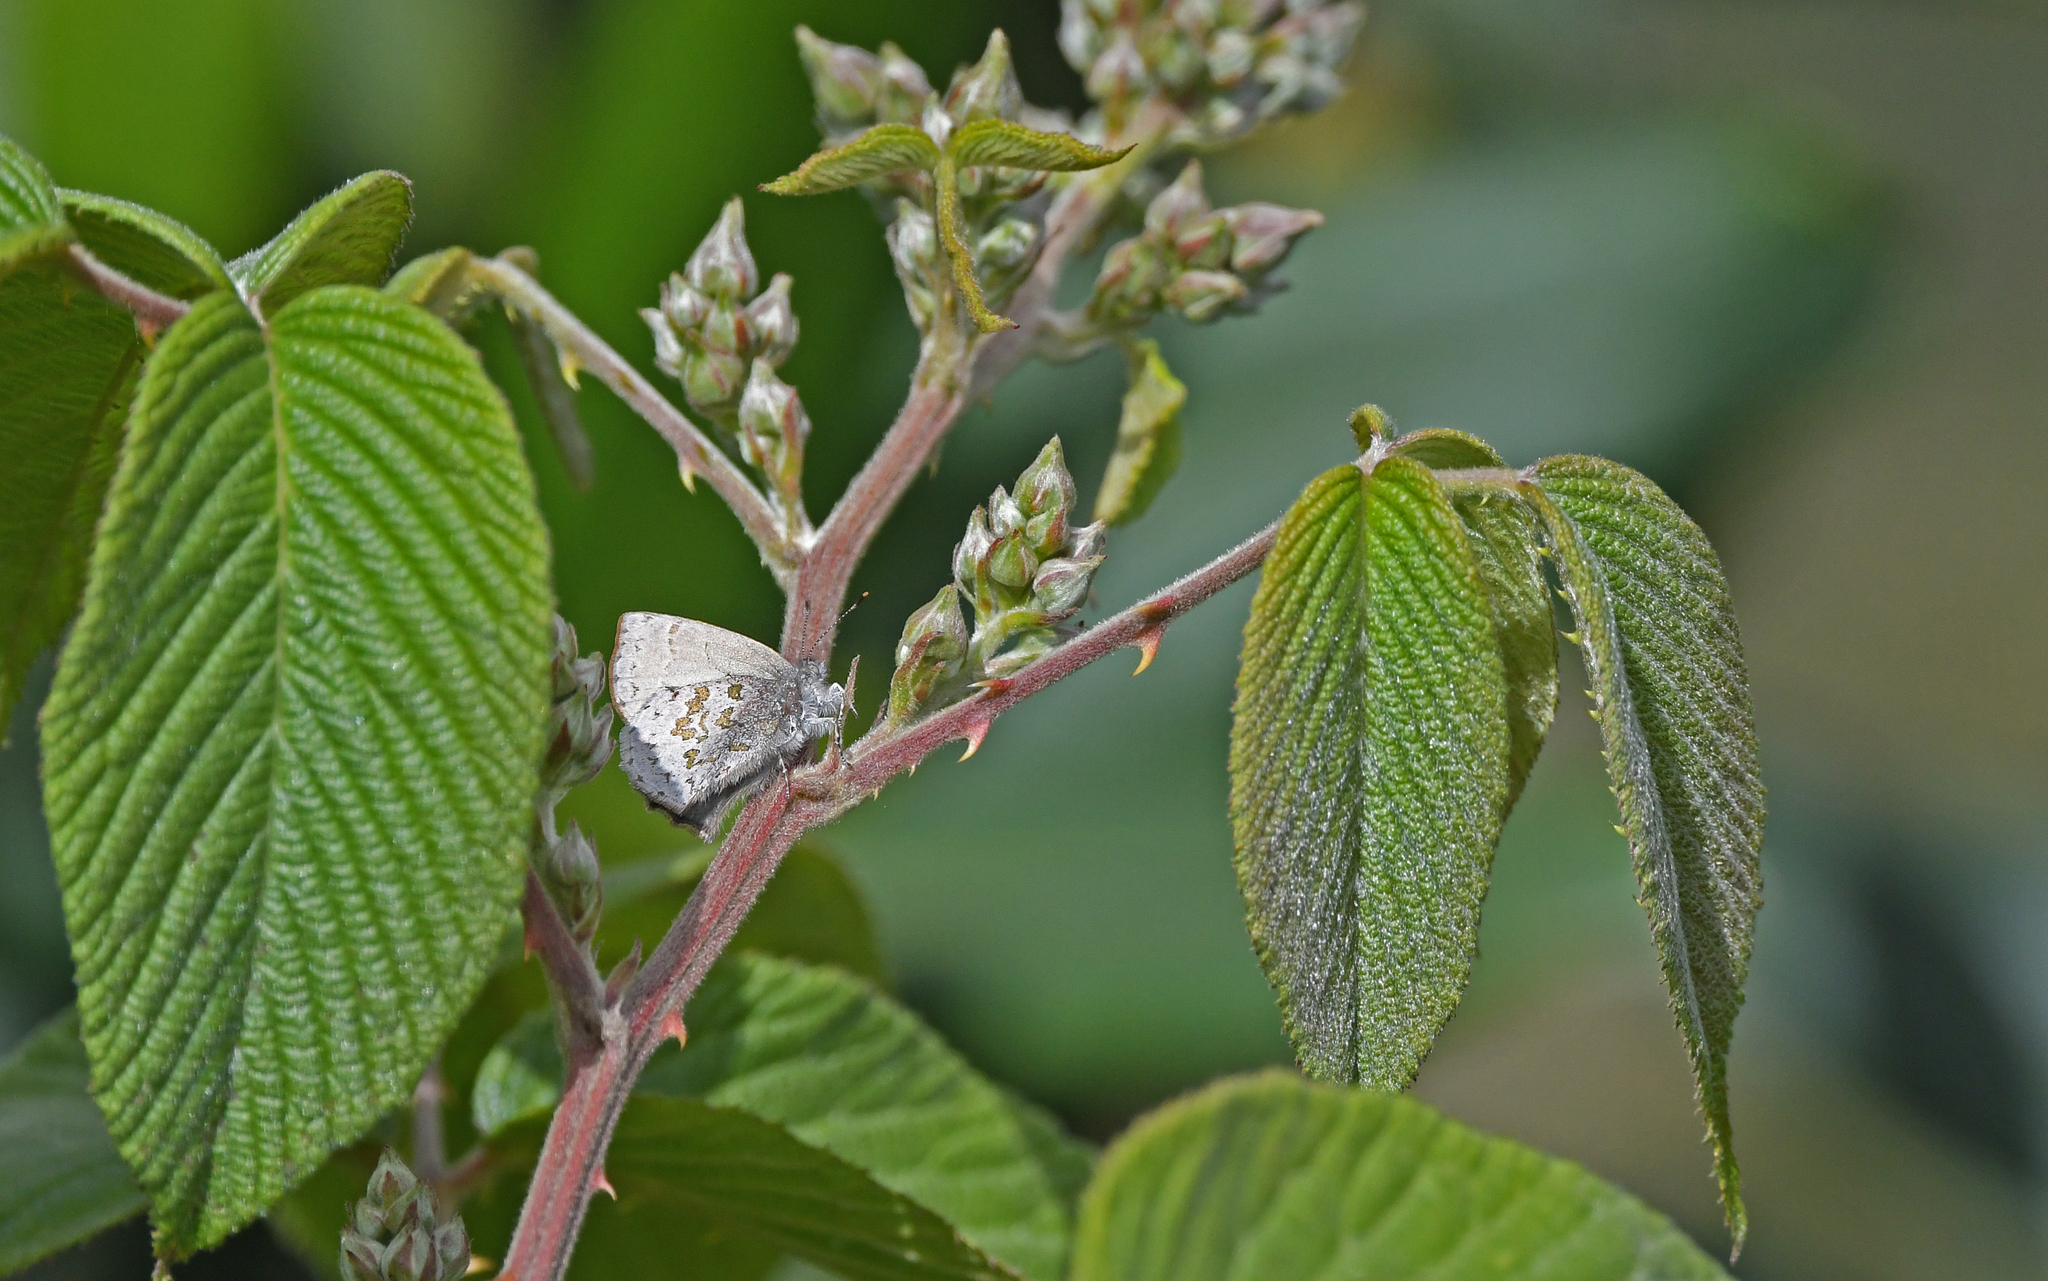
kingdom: Animalia
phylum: Arthropoda
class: Insecta
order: Lepidoptera
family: Lycaenidae
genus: Thecla
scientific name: Thecla arria
